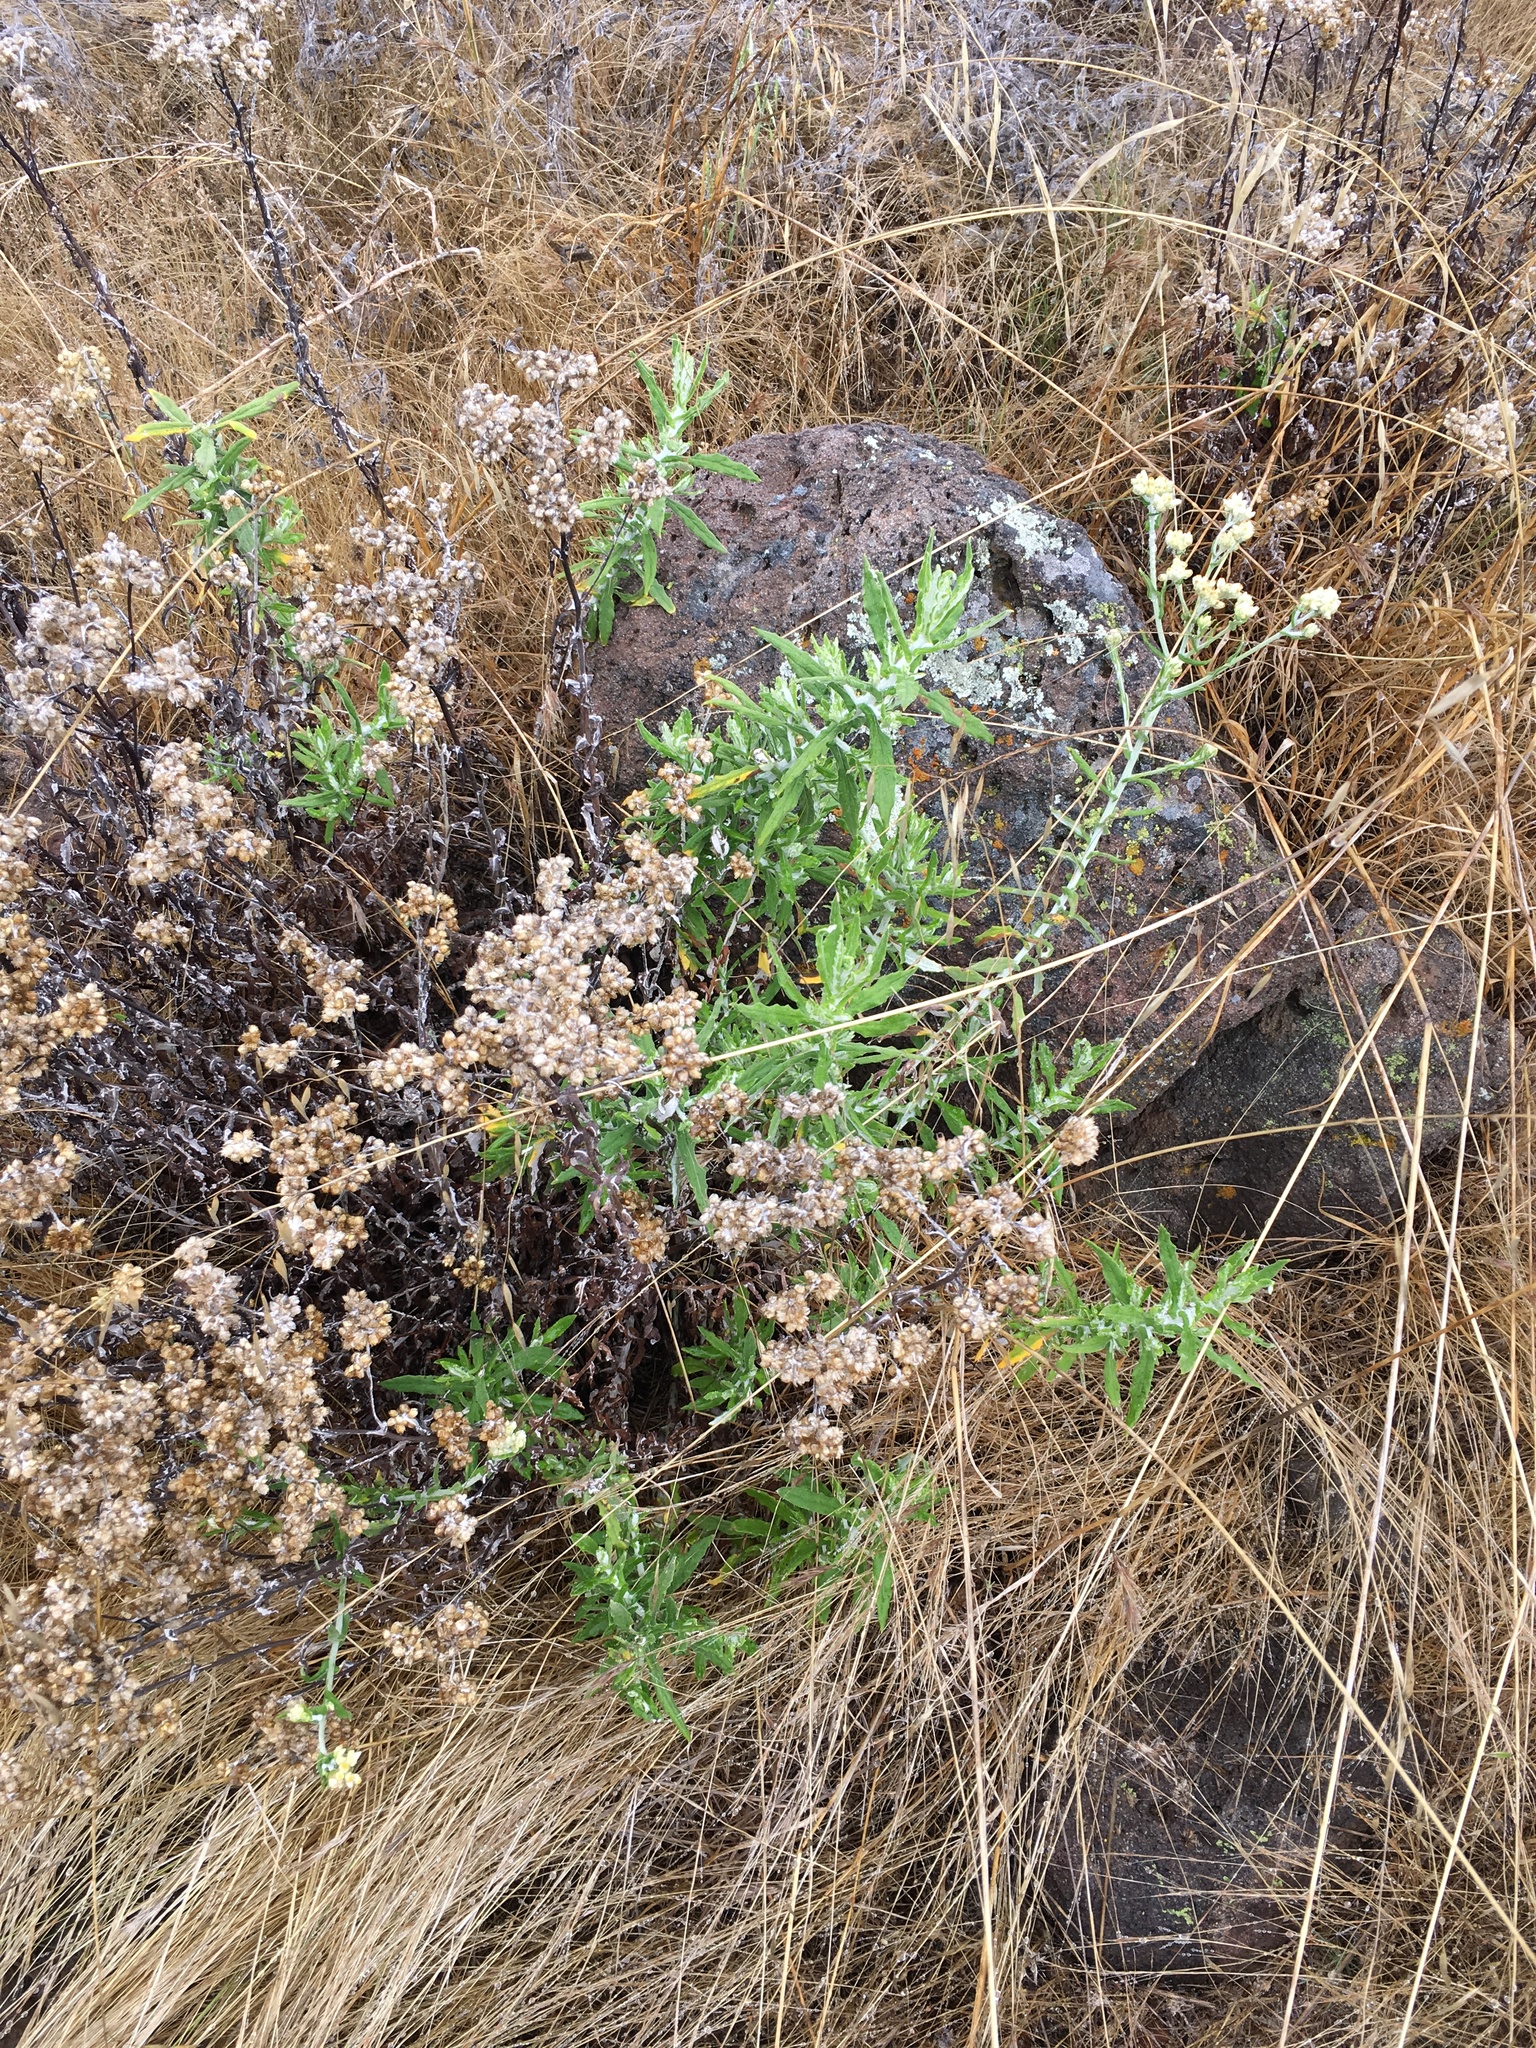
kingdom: Plantae
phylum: Tracheophyta
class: Magnoliopsida
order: Asterales
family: Asteraceae
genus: Pseudognaphalium
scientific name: Pseudognaphalium biolettii
